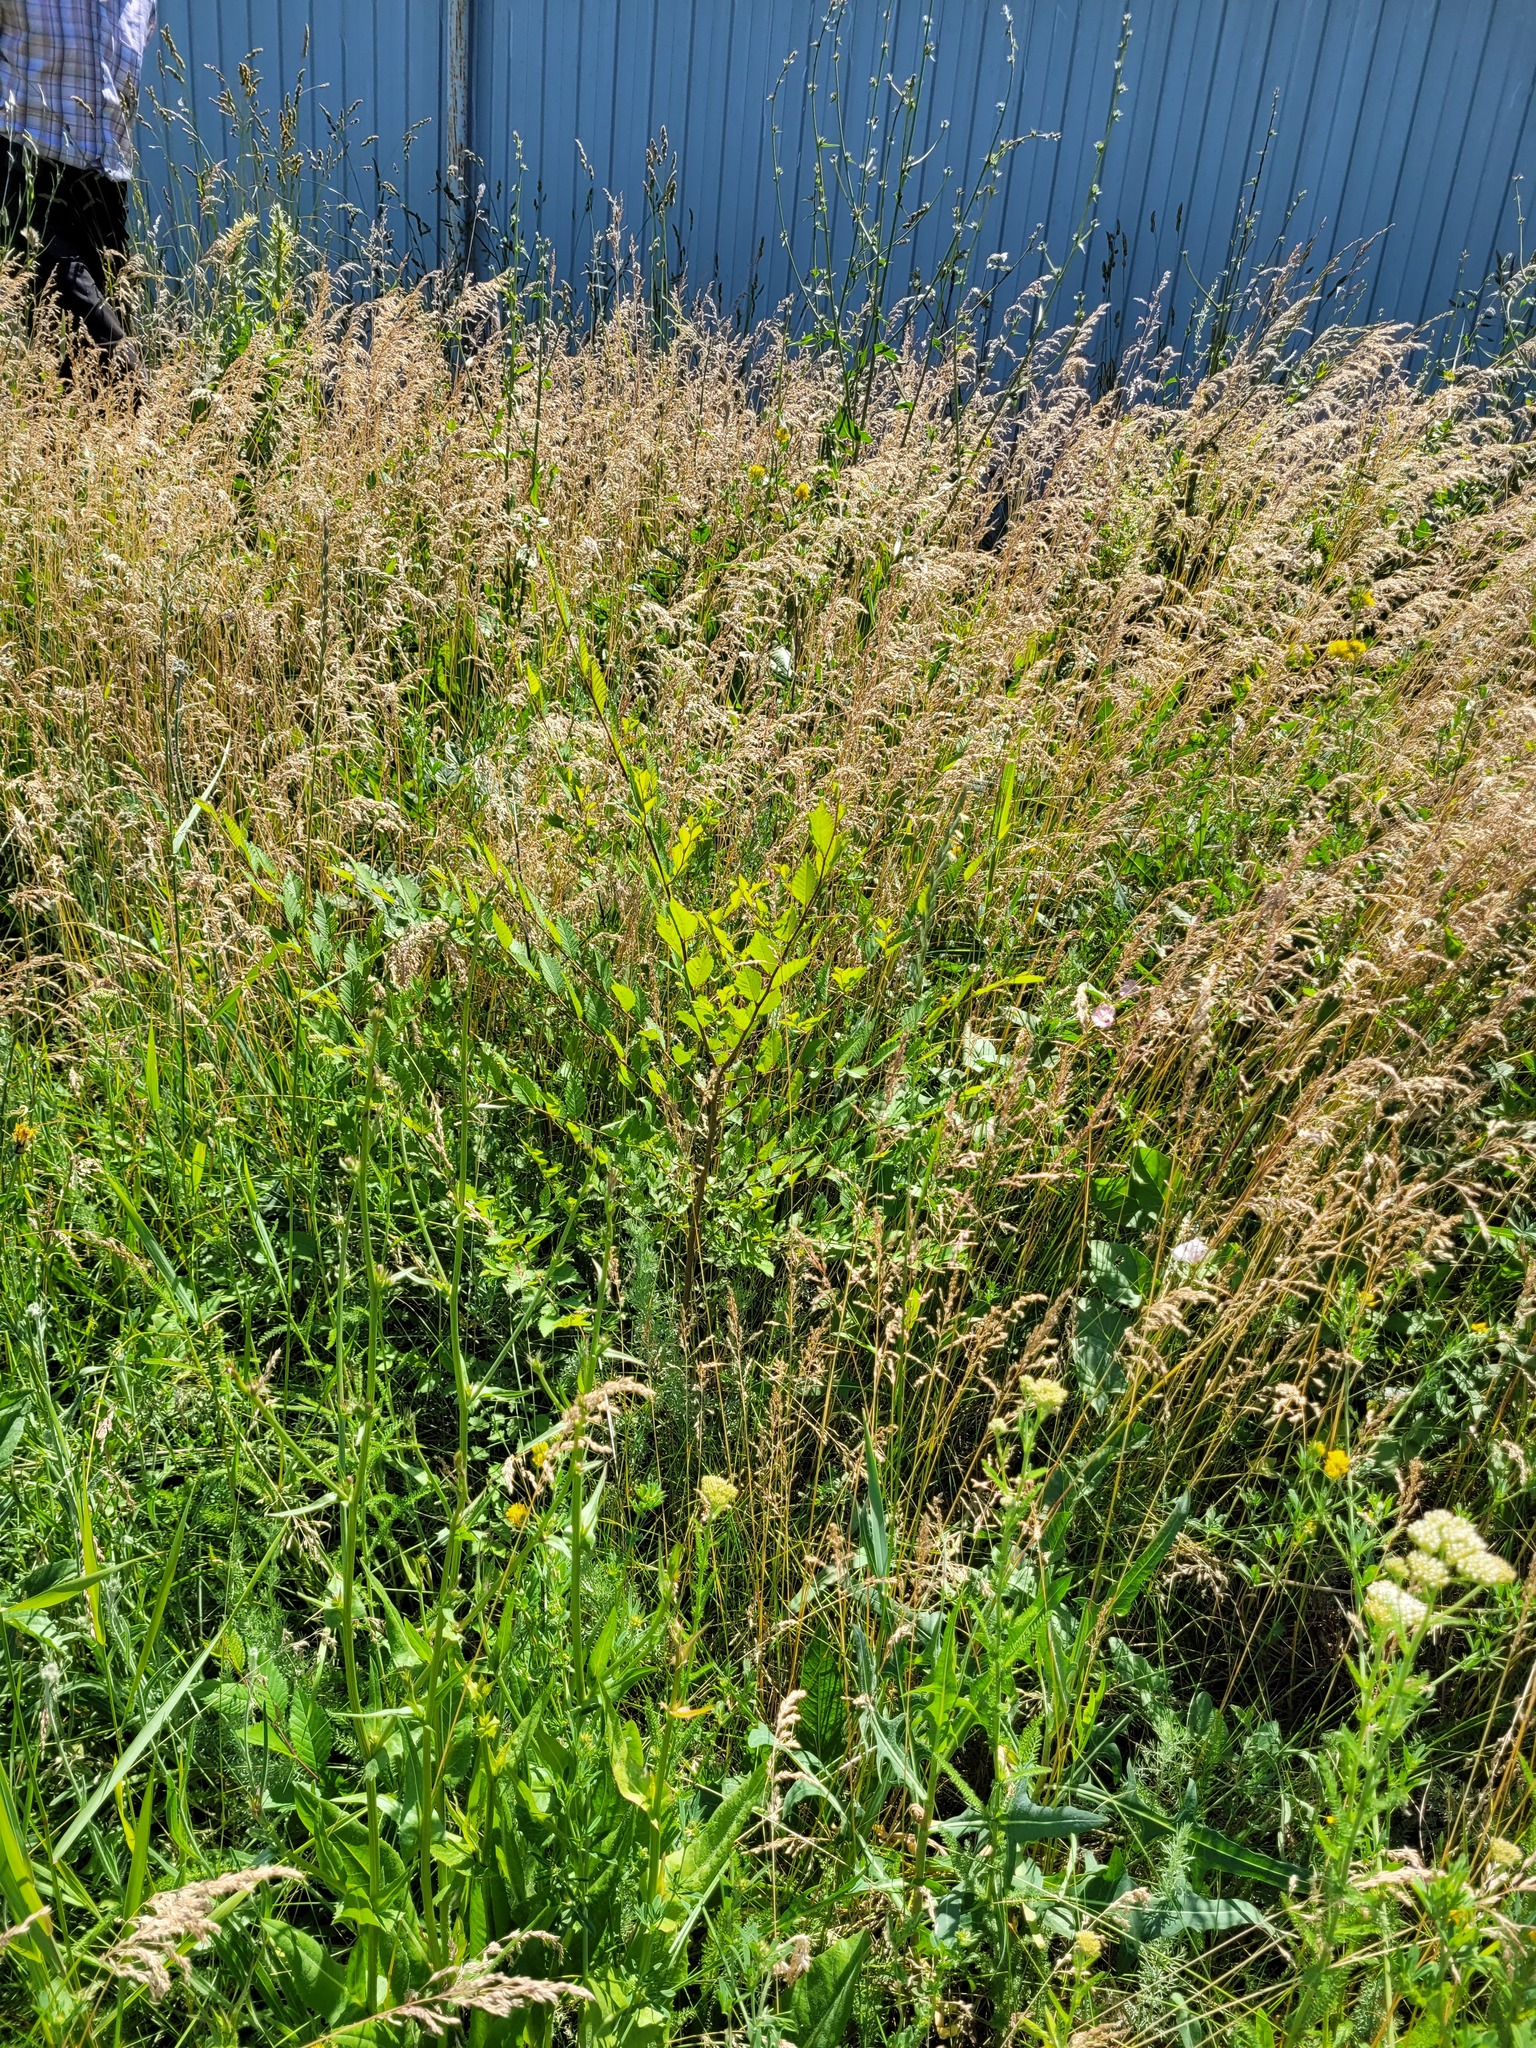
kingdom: Plantae
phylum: Tracheophyta
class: Magnoliopsida
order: Rosales
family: Ulmaceae
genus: Ulmus
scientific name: Ulmus pumila
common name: Siberian elm
